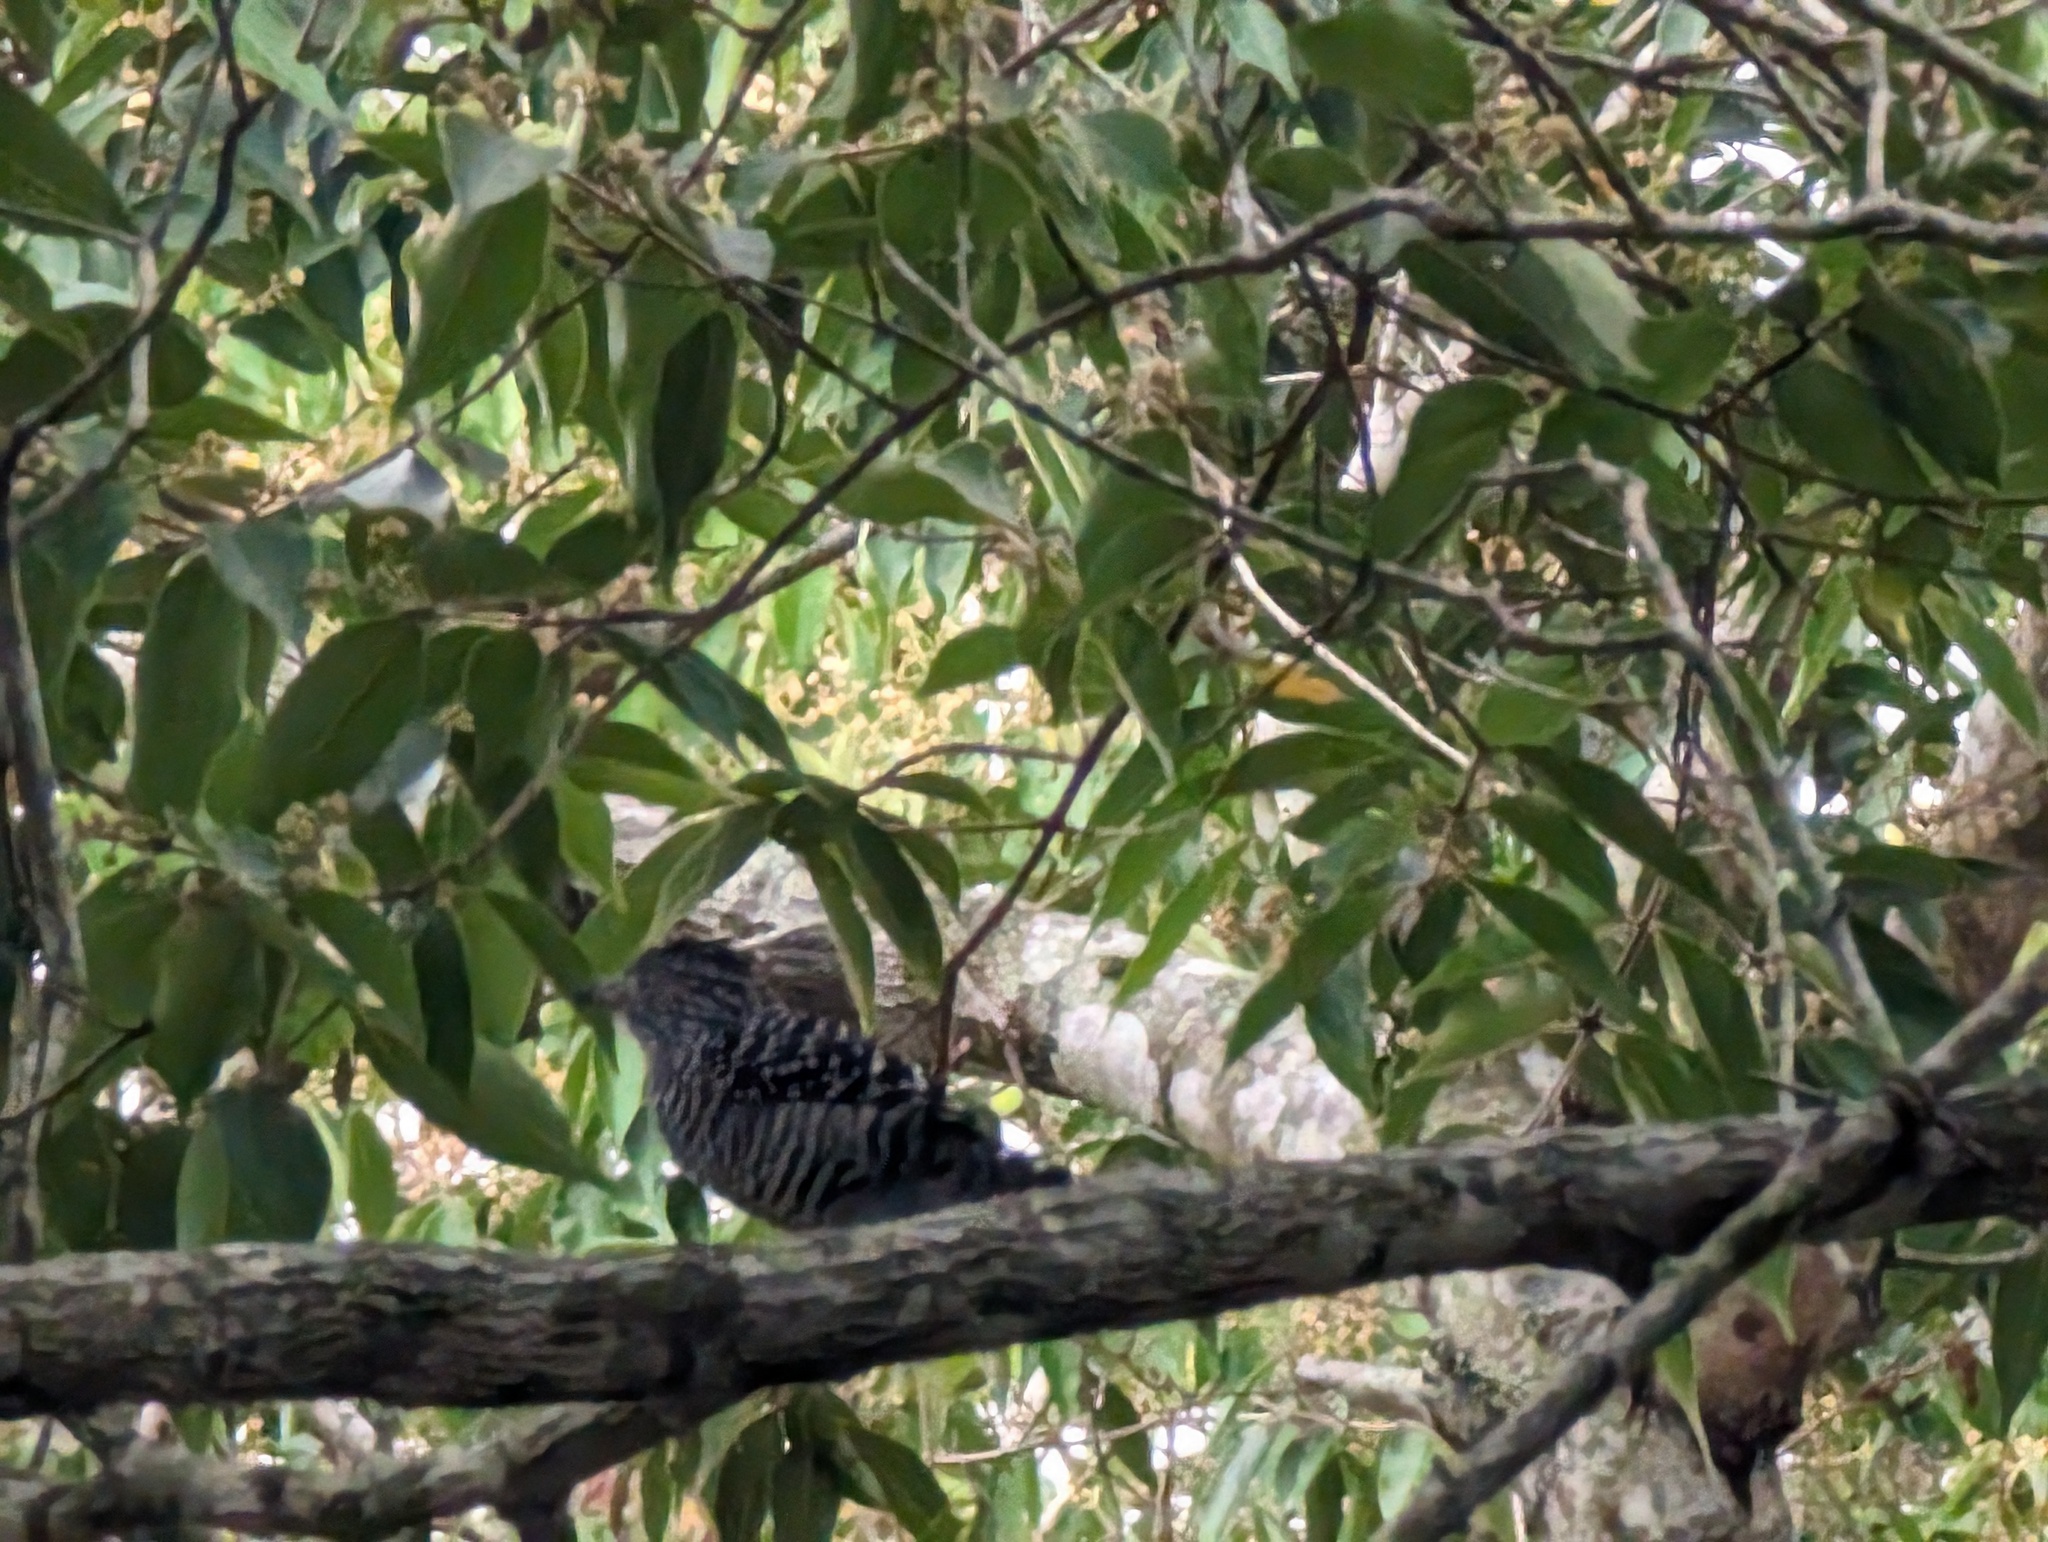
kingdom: Animalia
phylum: Chordata
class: Aves
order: Passeriformes
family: Thamnophilidae
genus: Thamnophilus
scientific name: Thamnophilus doliatus
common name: Barred antshrike
